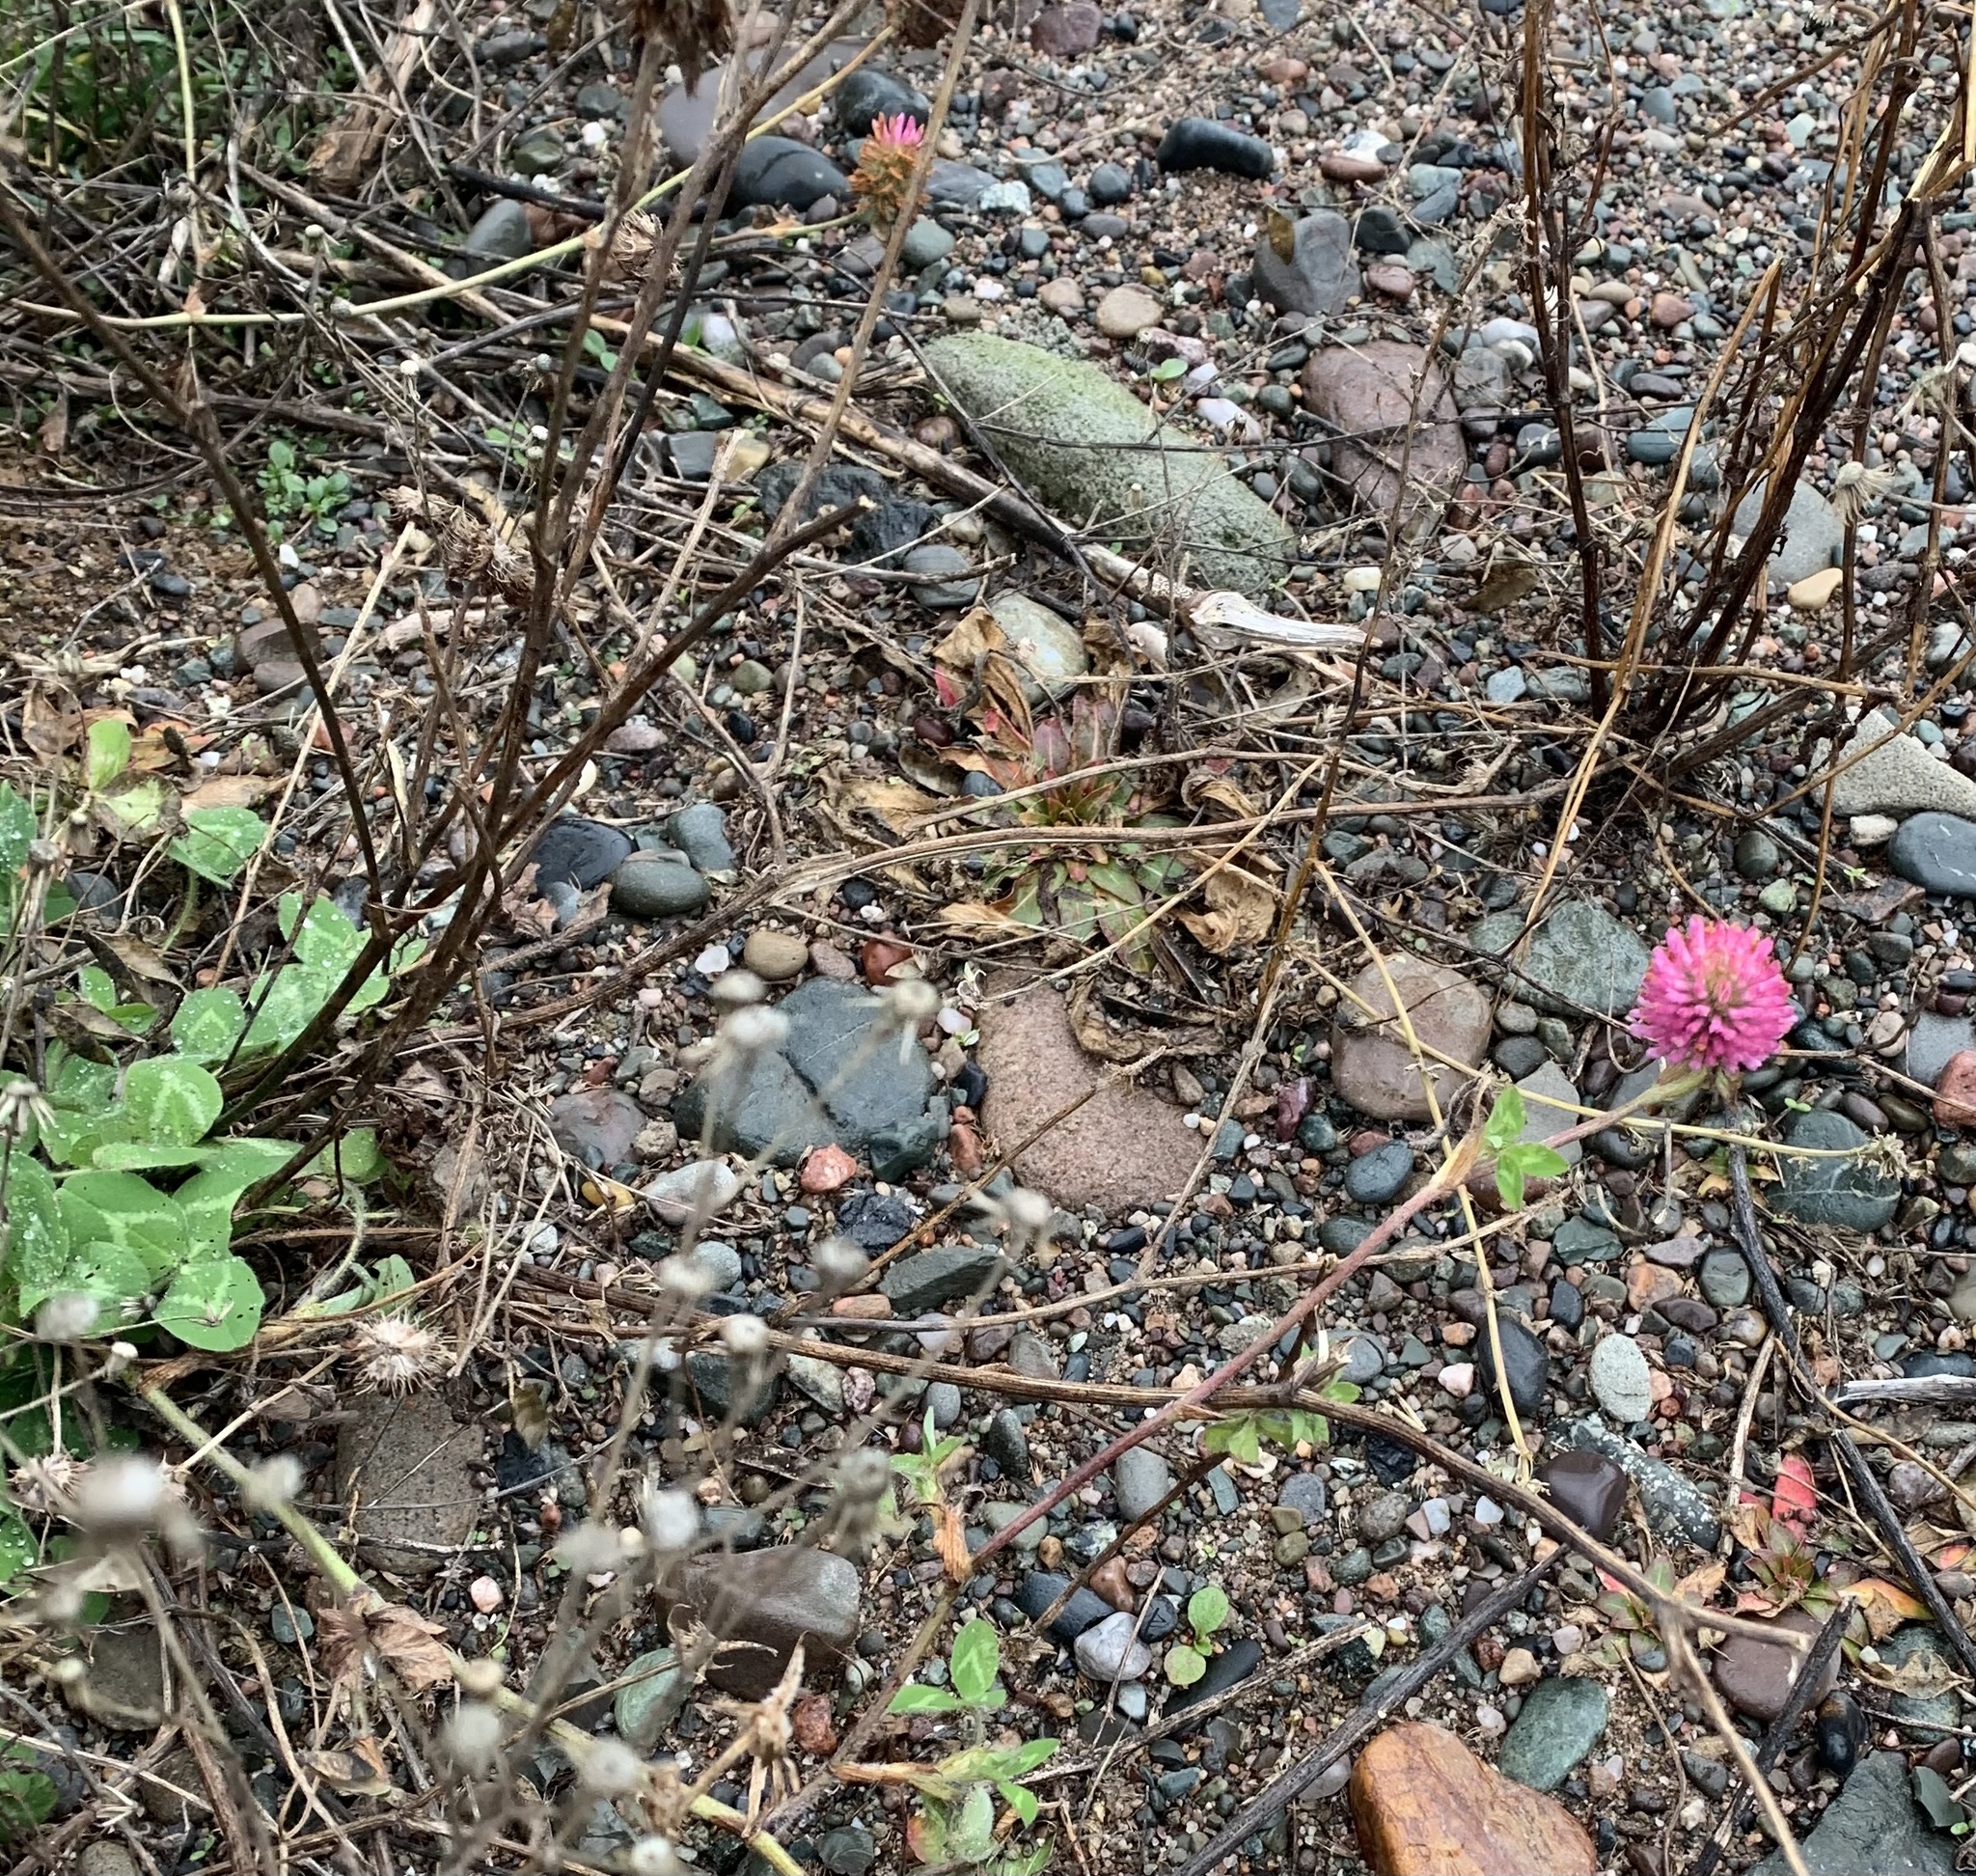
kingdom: Plantae
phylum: Tracheophyta
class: Magnoliopsida
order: Fabales
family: Fabaceae
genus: Trifolium
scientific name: Trifolium pratense
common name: Red clover
